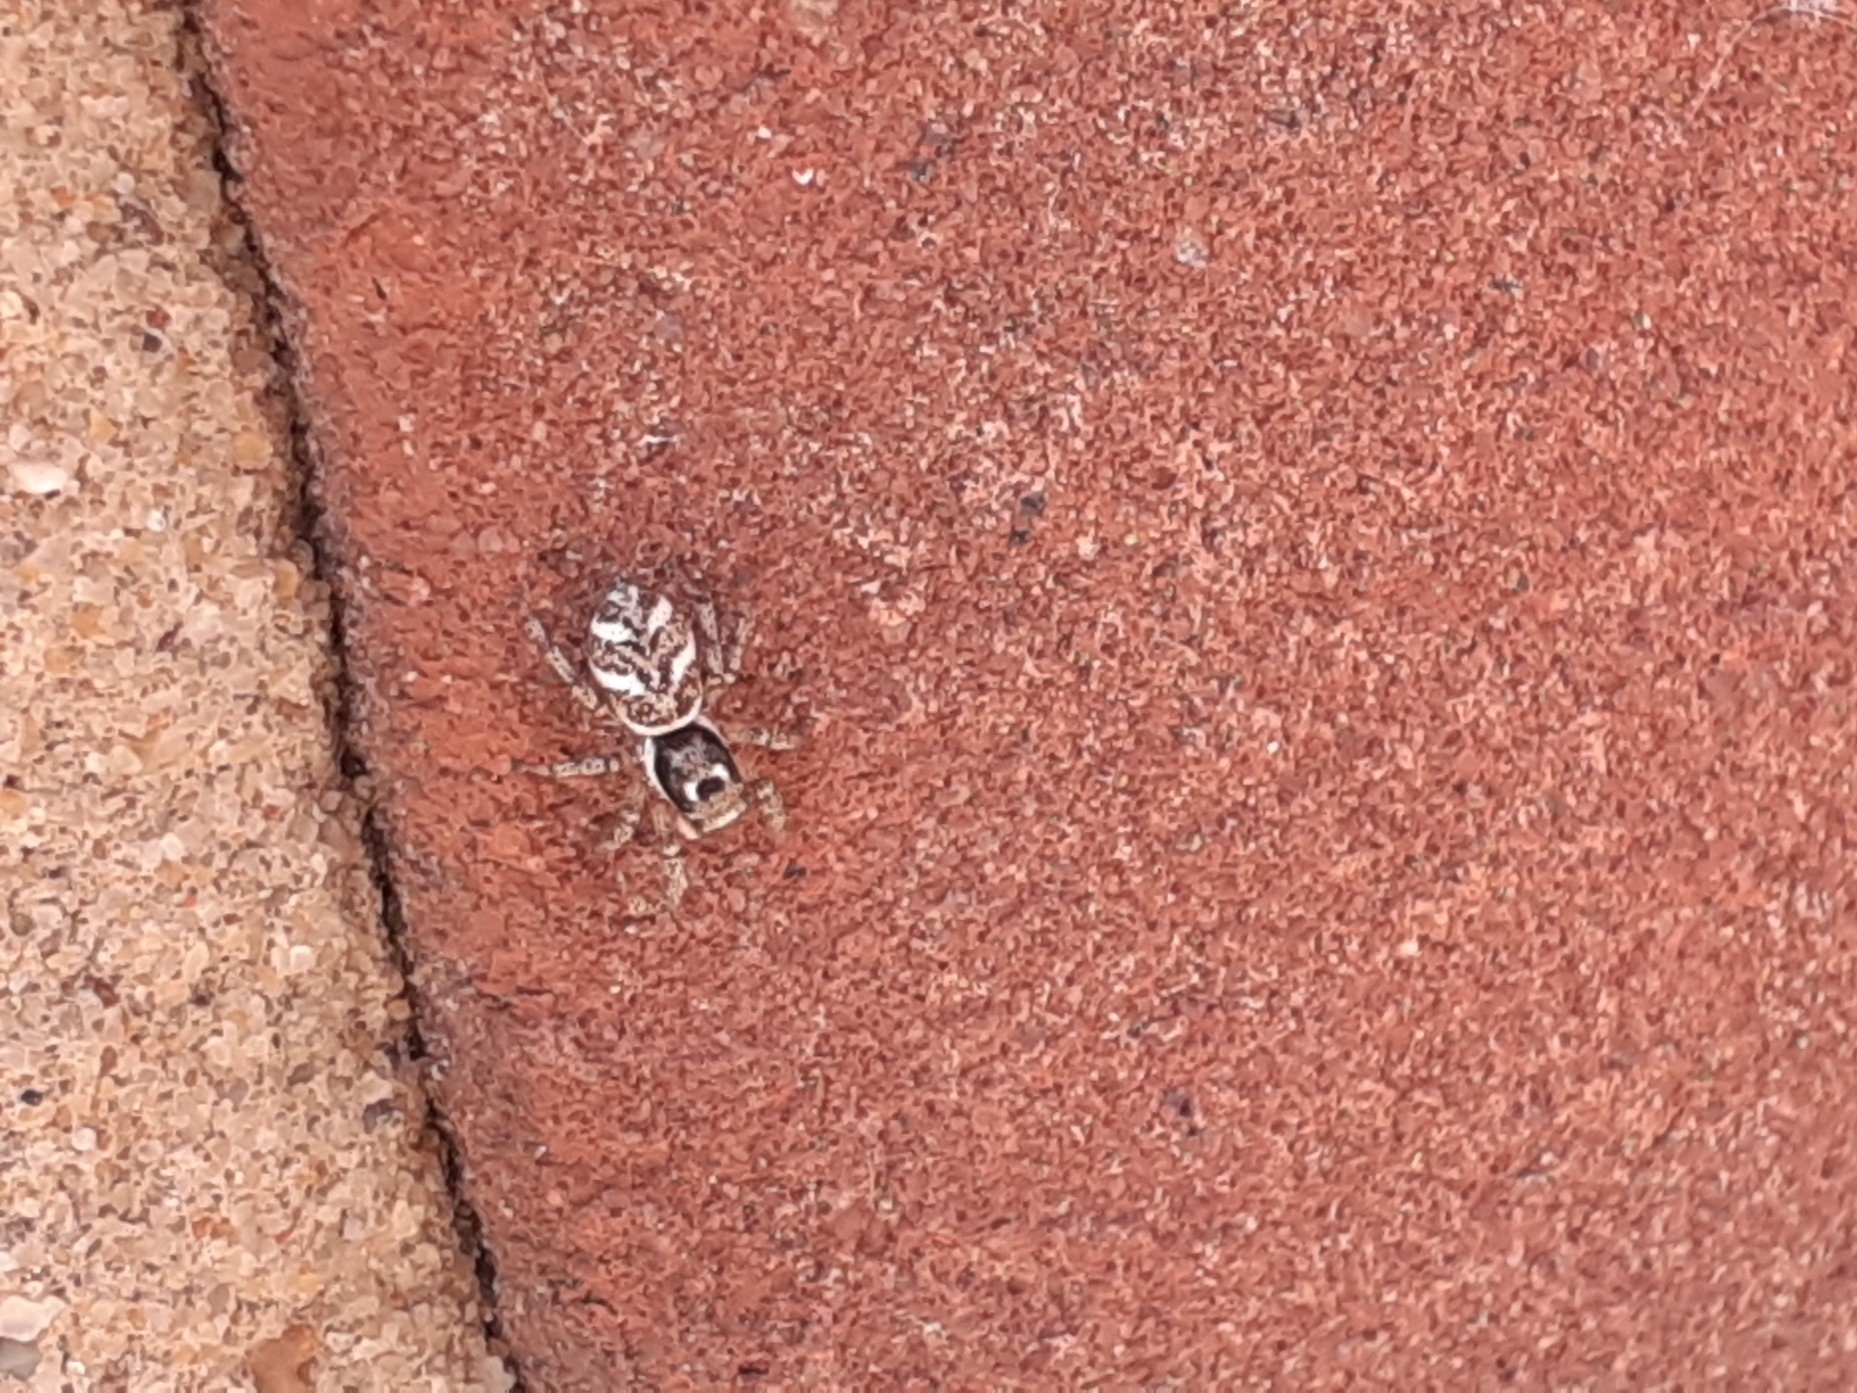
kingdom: Animalia
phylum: Arthropoda
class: Arachnida
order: Araneae
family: Salticidae
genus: Salticus
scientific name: Salticus scenicus
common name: Zebra jumper
